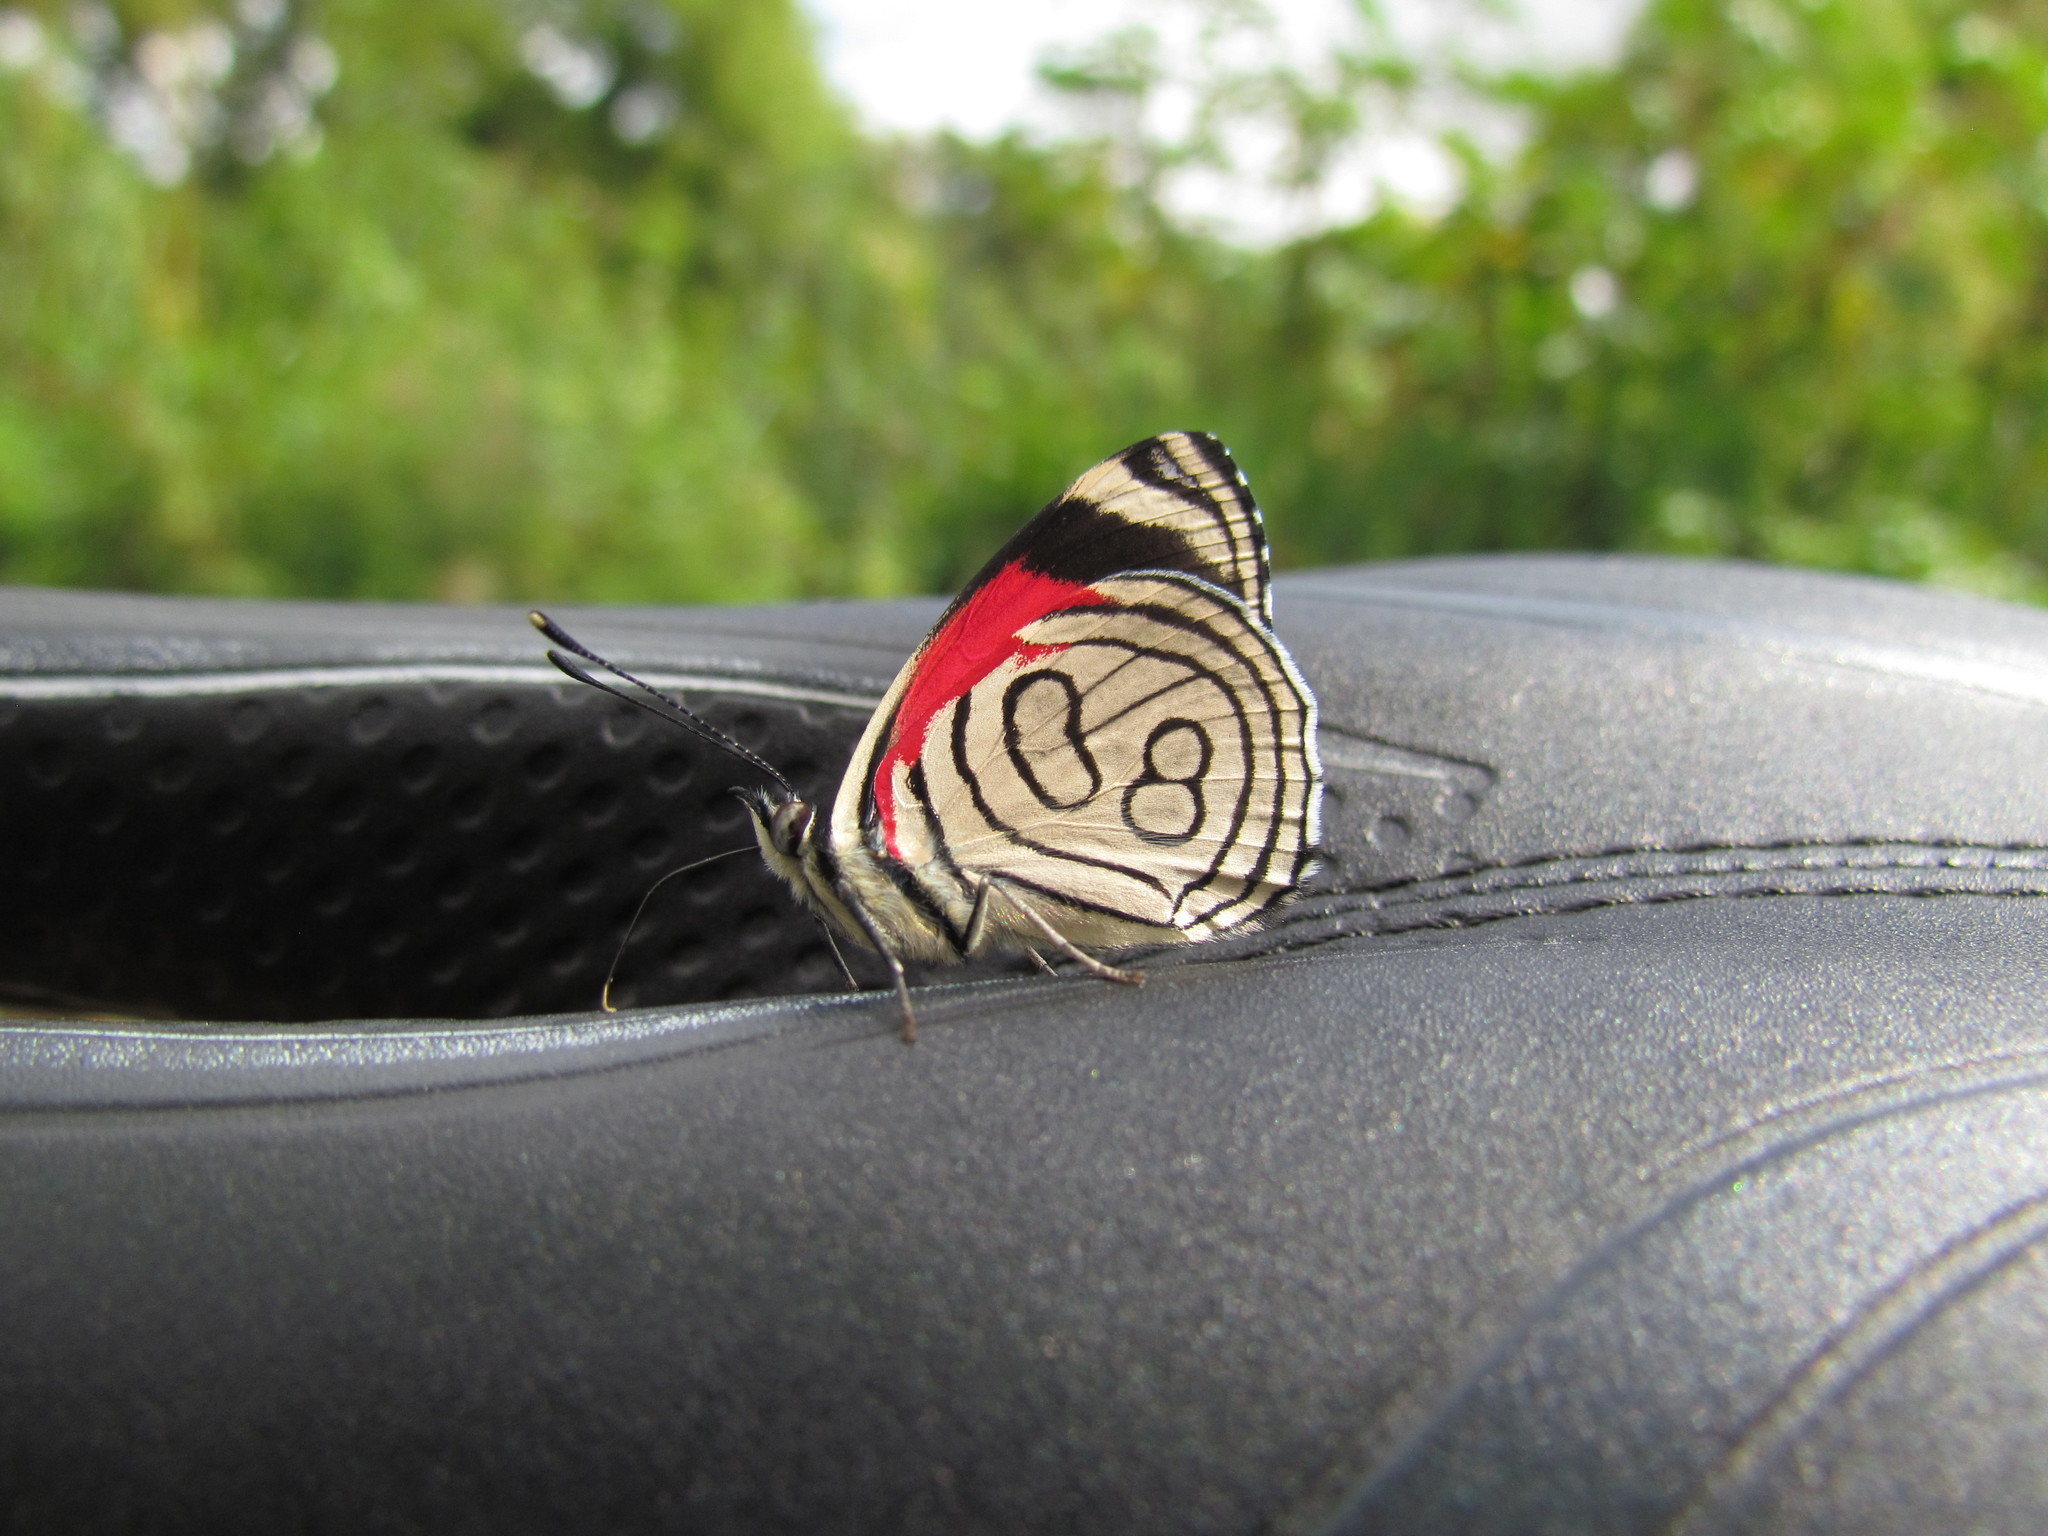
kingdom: Animalia
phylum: Arthropoda
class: Insecta
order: Lepidoptera
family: Nymphalidae
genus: Diaethria
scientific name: Diaethria candrena
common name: Number eighty
